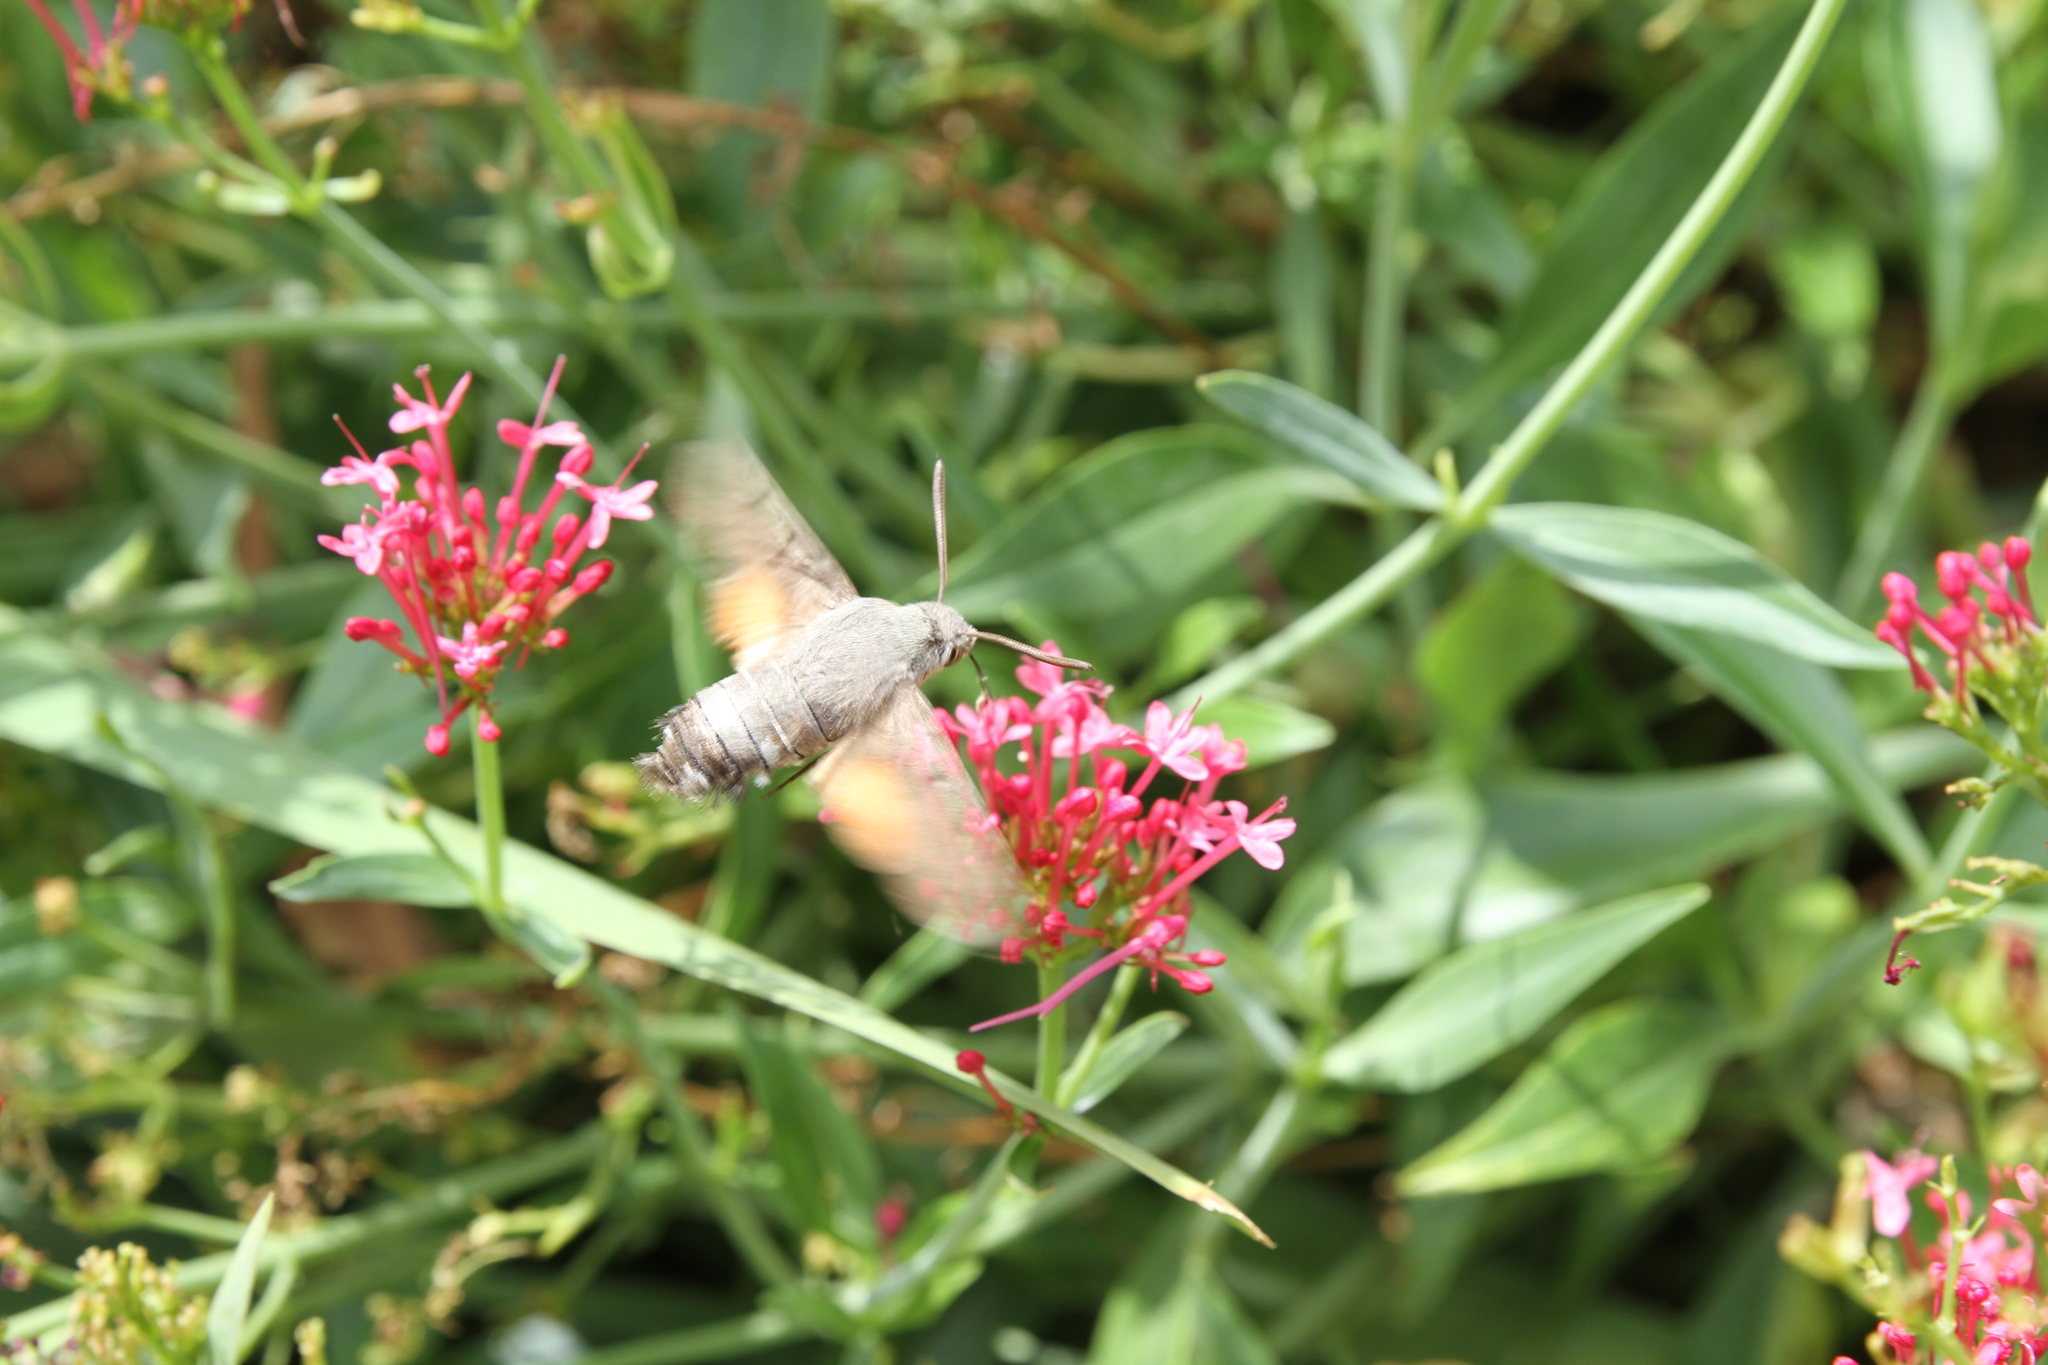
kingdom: Animalia
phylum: Arthropoda
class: Insecta
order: Lepidoptera
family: Sphingidae
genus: Macroglossum
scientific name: Macroglossum stellatarum
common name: Humming-bird hawk-moth
